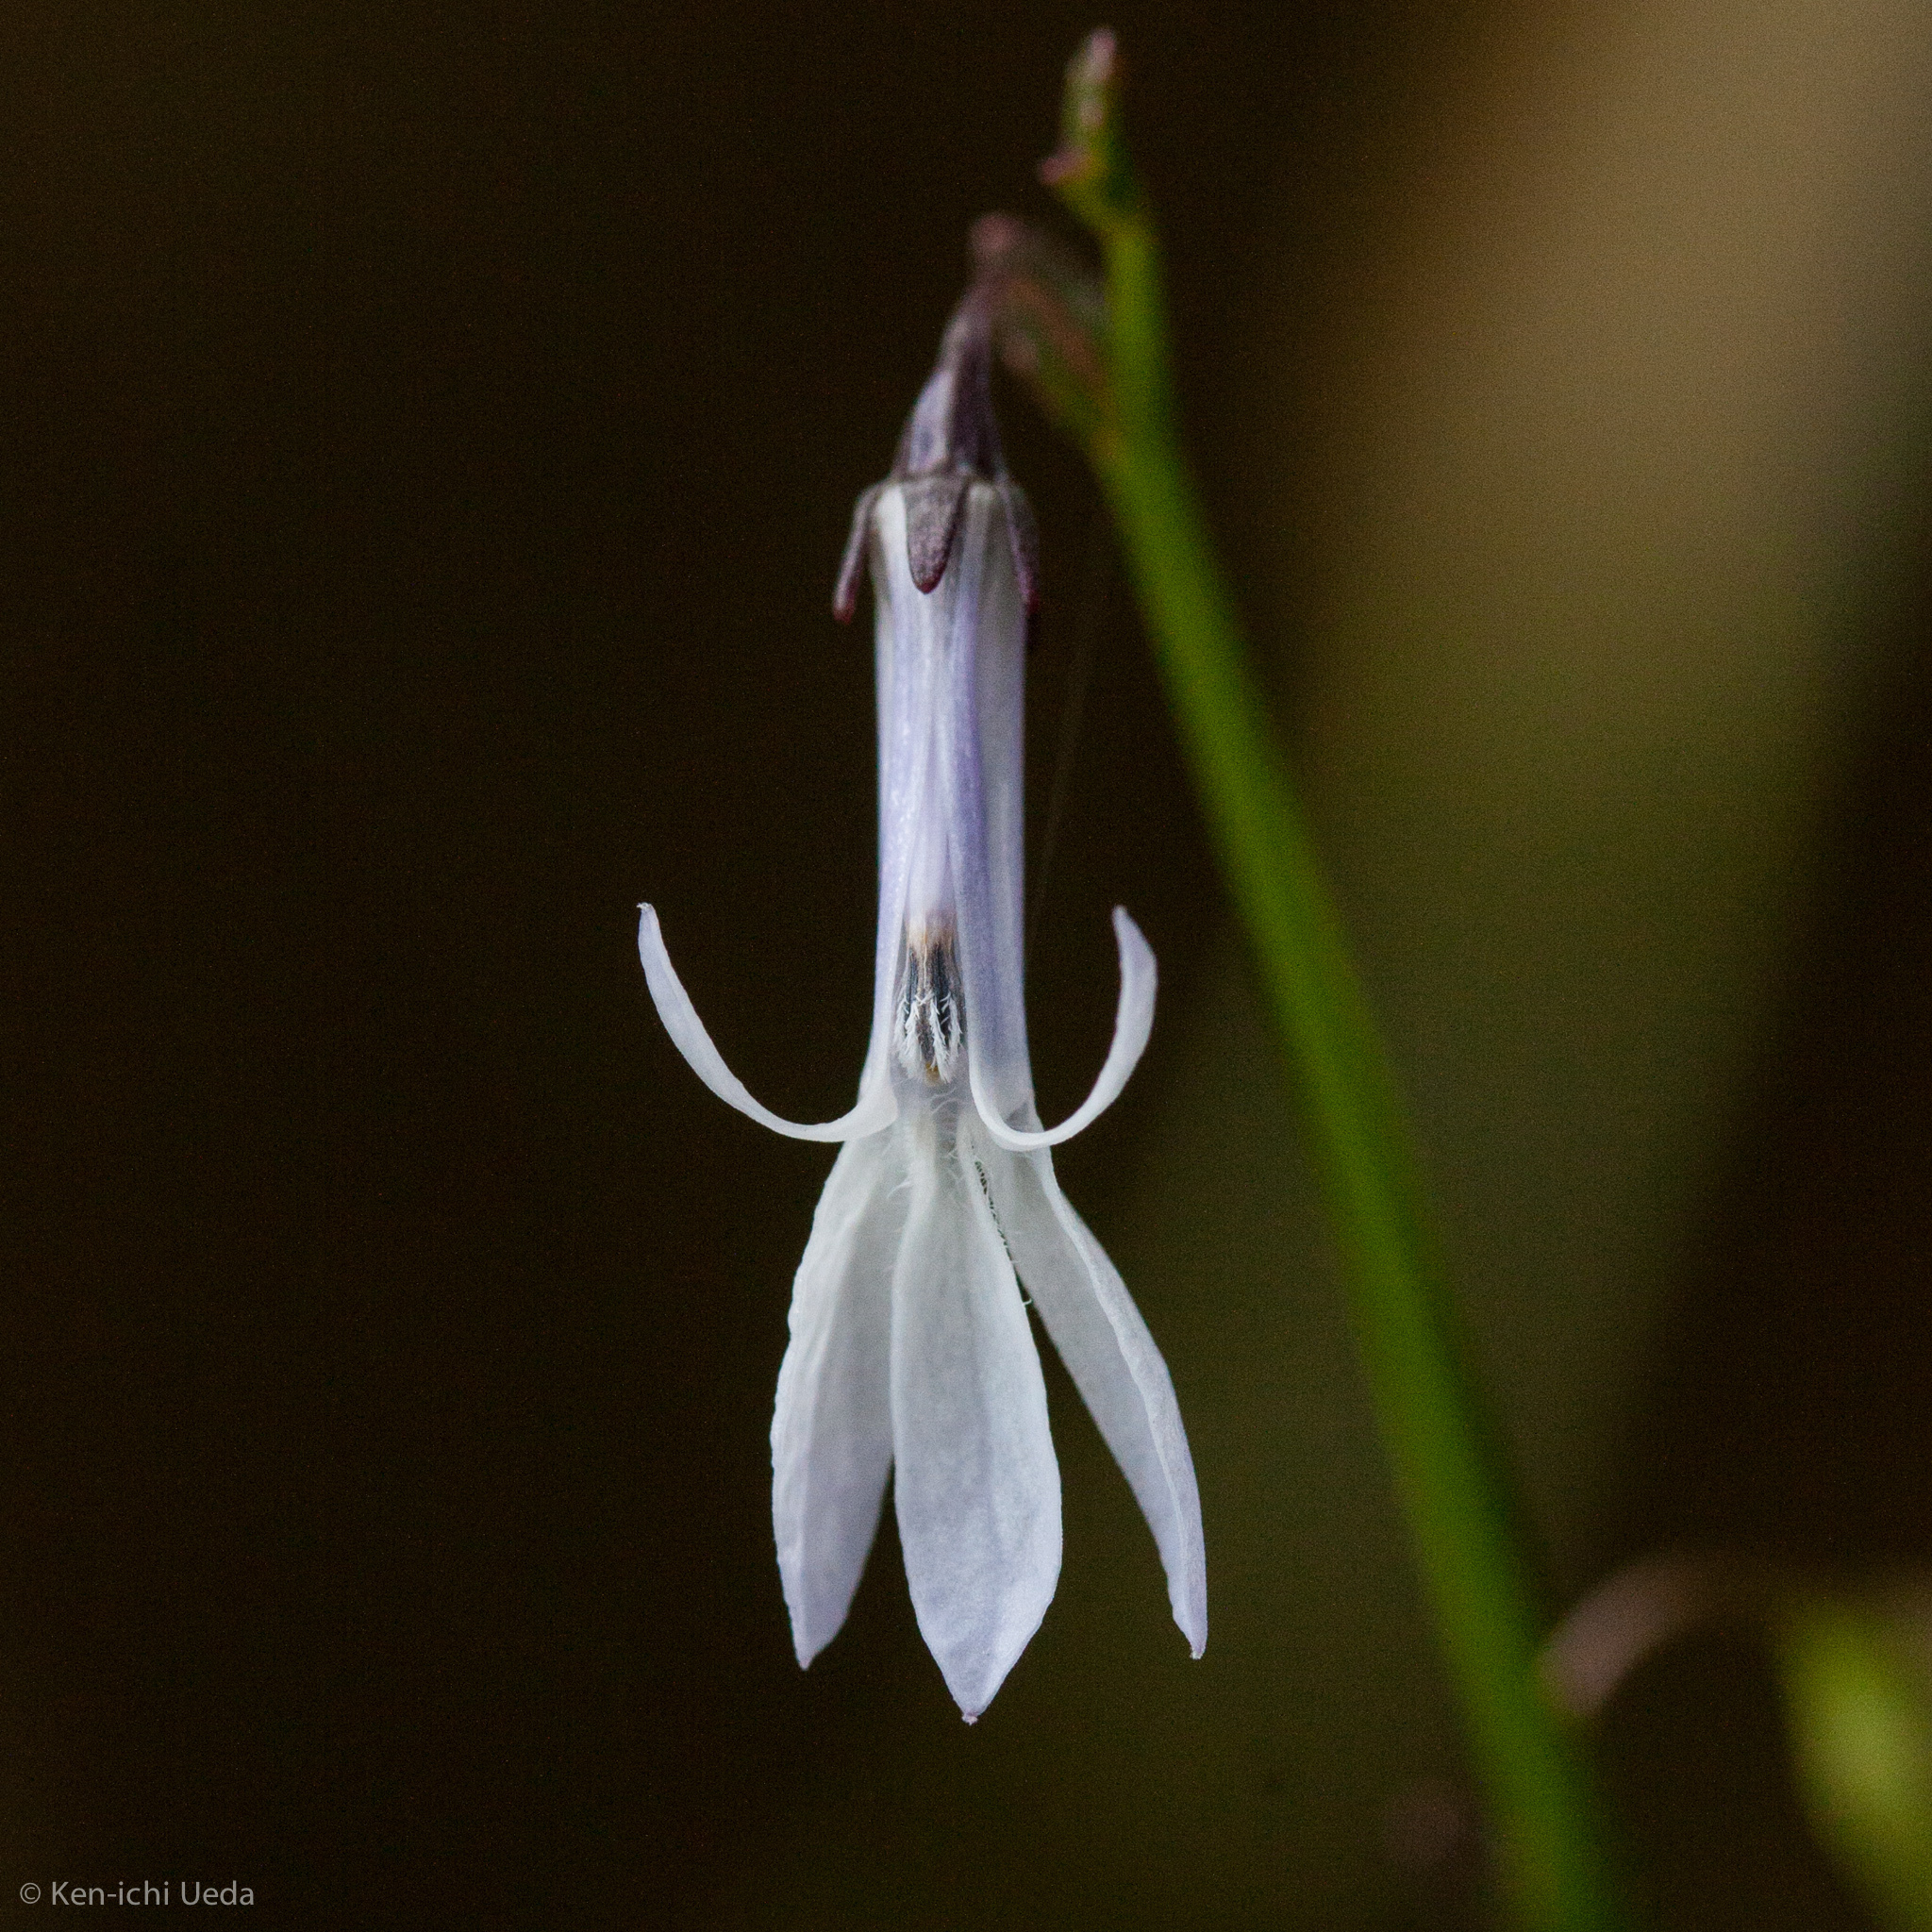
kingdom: Plantae
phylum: Tracheophyta
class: Magnoliopsida
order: Asterales
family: Campanulaceae
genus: Lobelia
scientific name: Lobelia dortmanna
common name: Water lobelia
